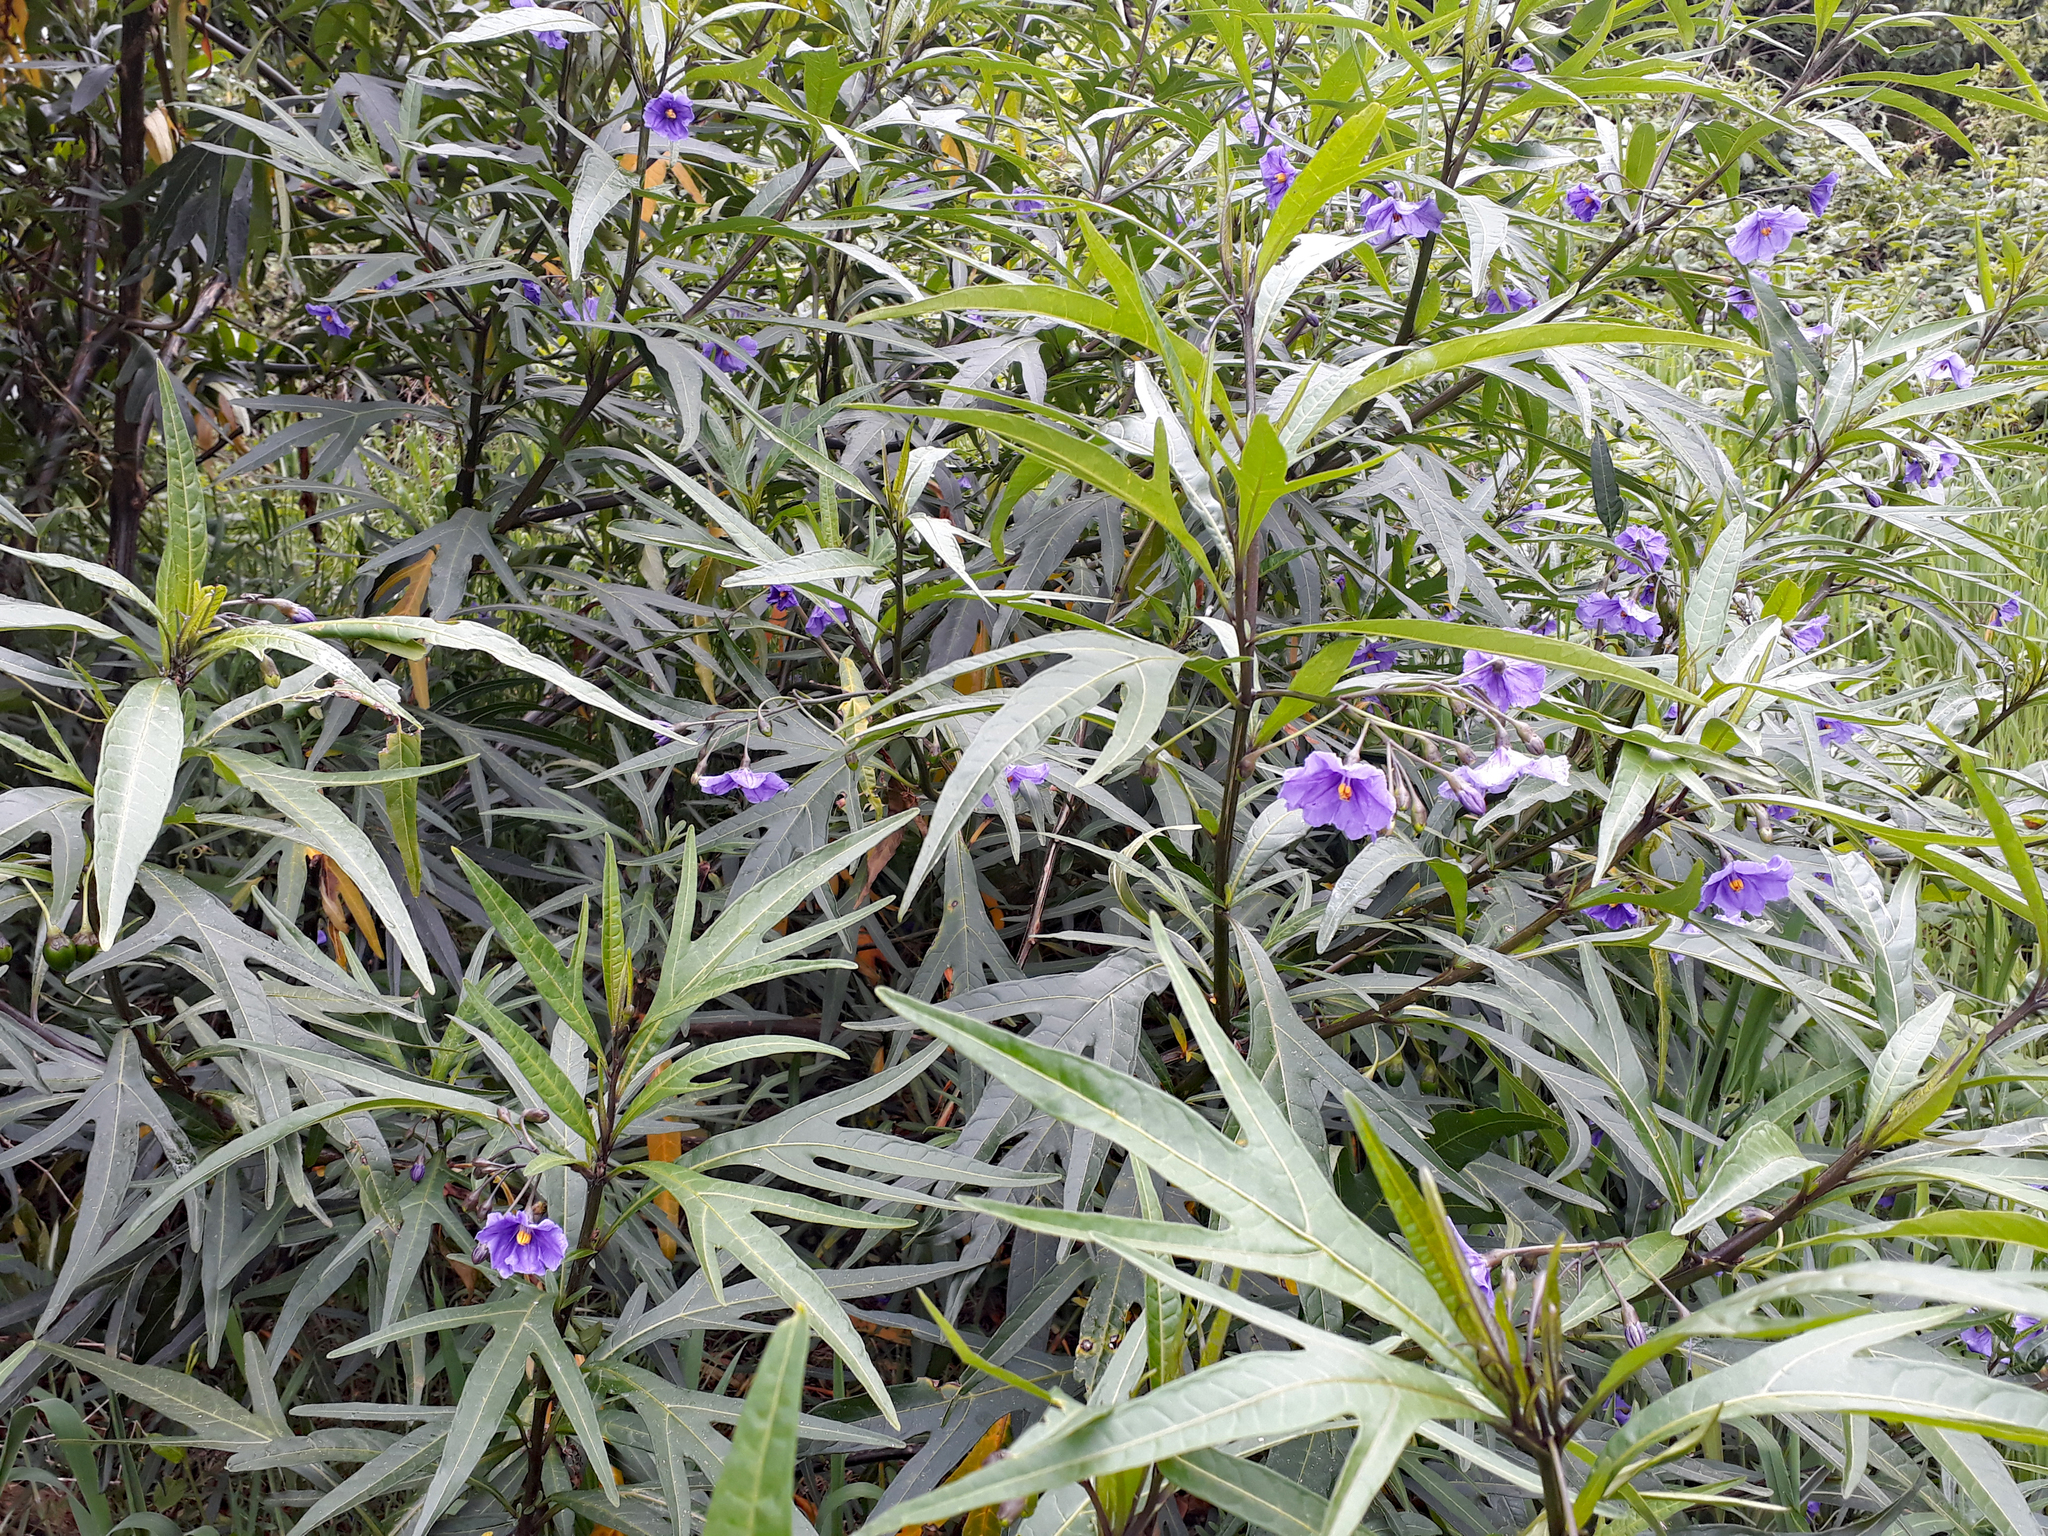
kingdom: Plantae
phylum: Tracheophyta
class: Magnoliopsida
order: Solanales
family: Solanaceae
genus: Solanum
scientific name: Solanum laciniatum
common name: Kangaroo-apple
